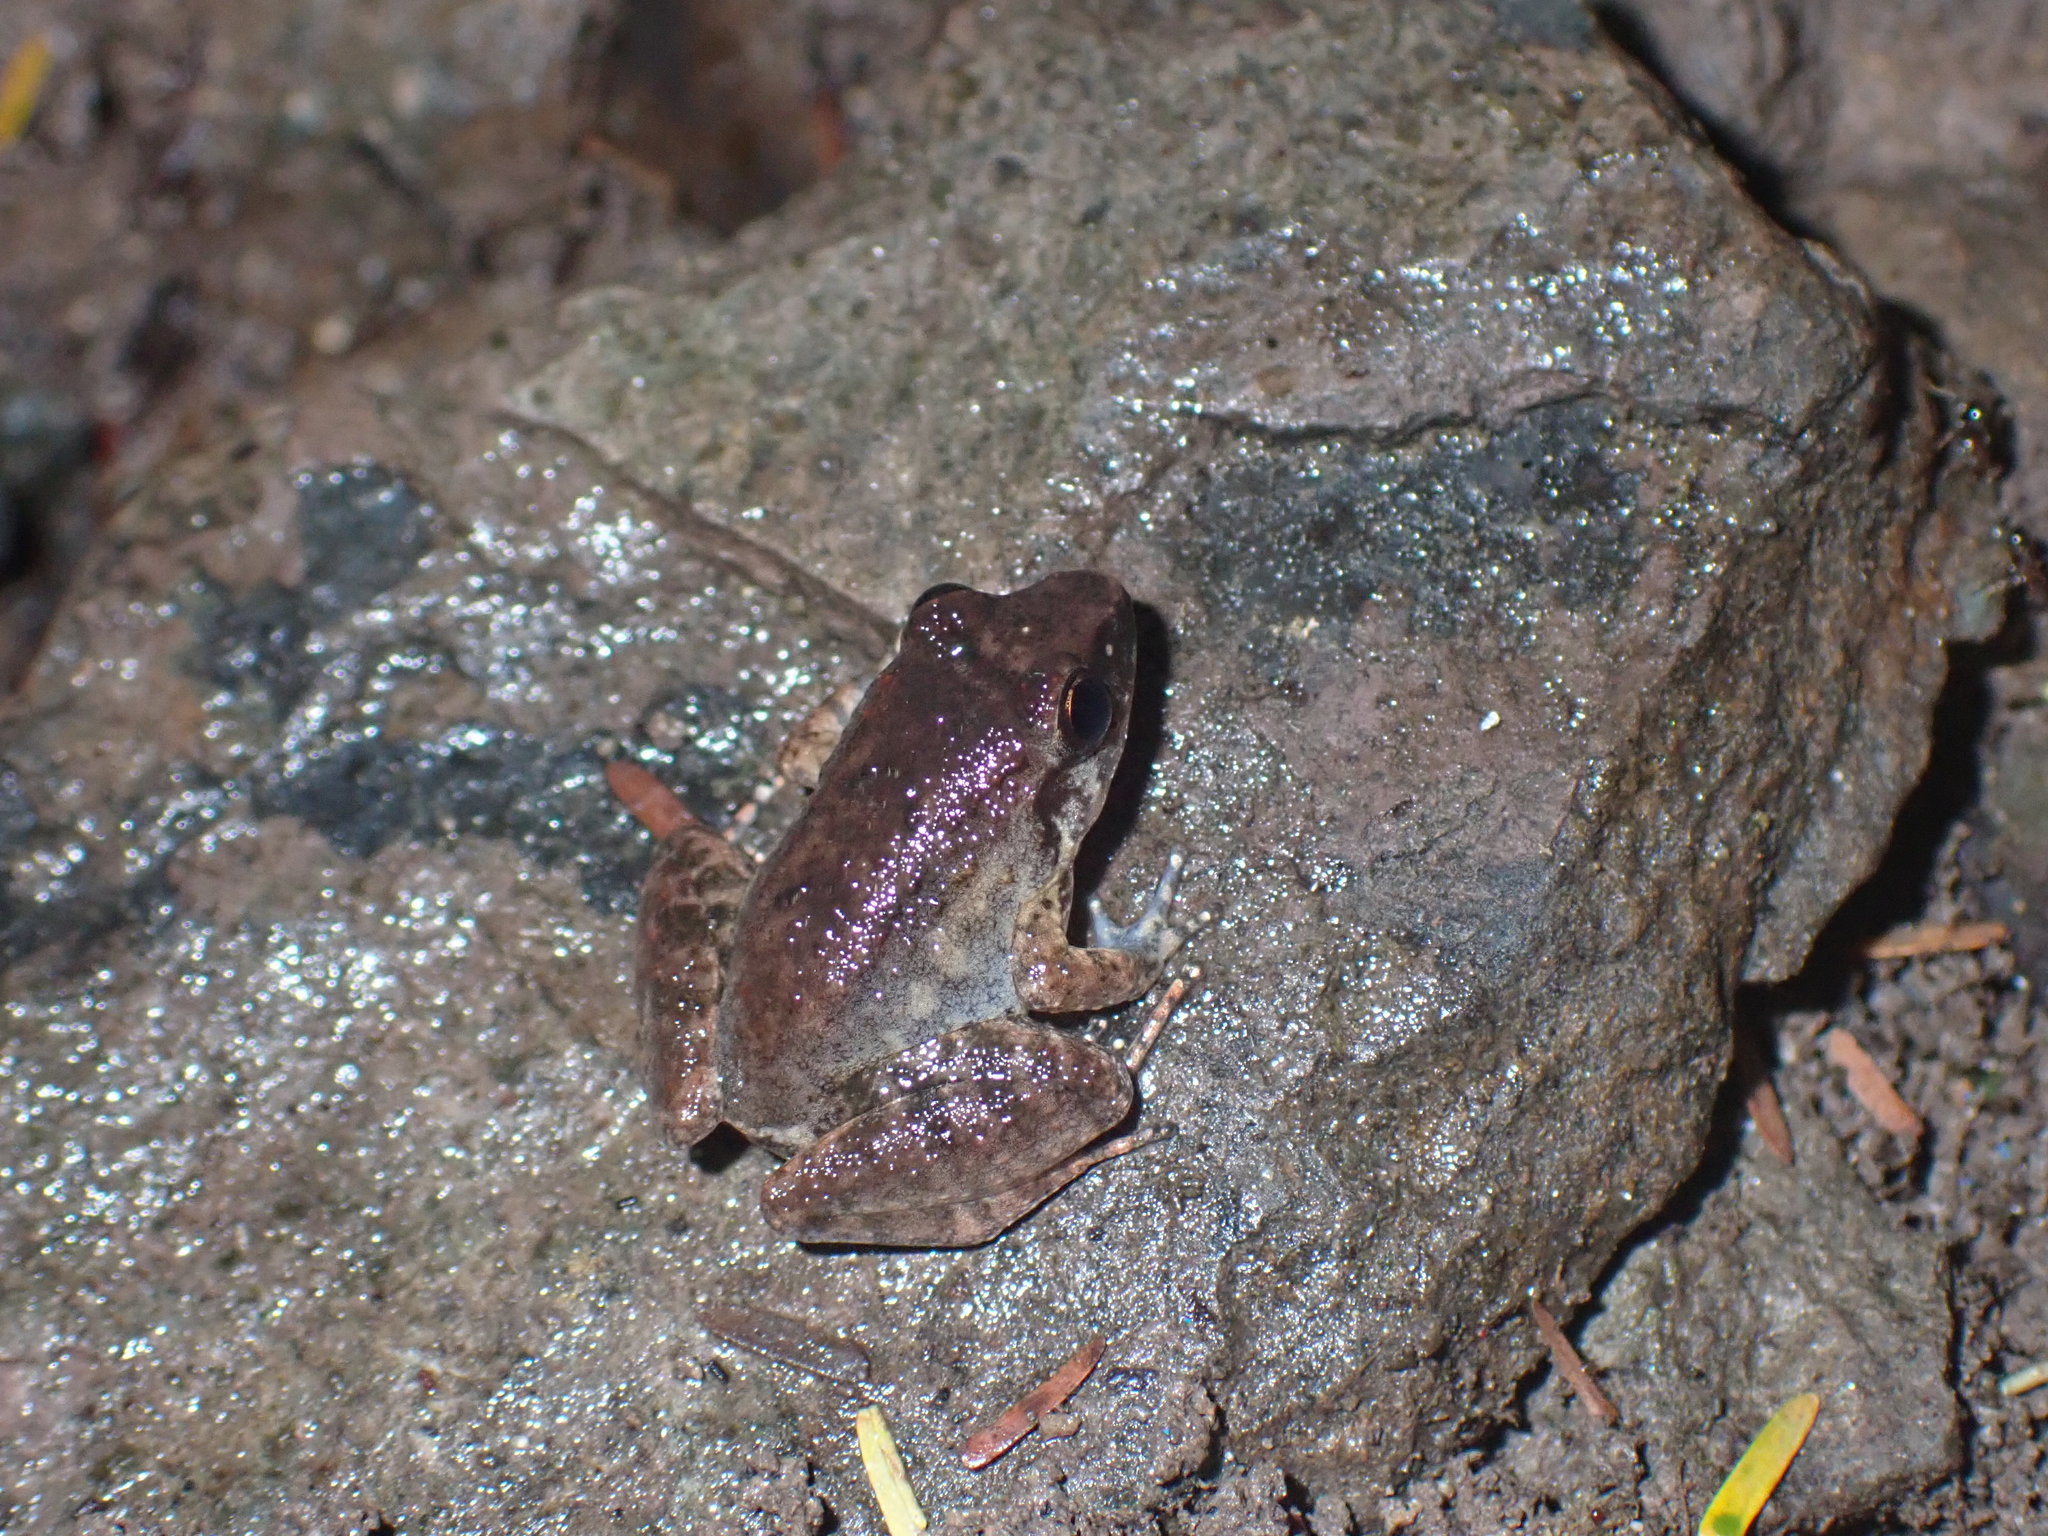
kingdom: Animalia
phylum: Chordata
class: Amphibia
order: Anura
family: Dicroglossidae
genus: Limnonectes
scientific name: Limnonectes hascheanus
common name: Hill forest frog
